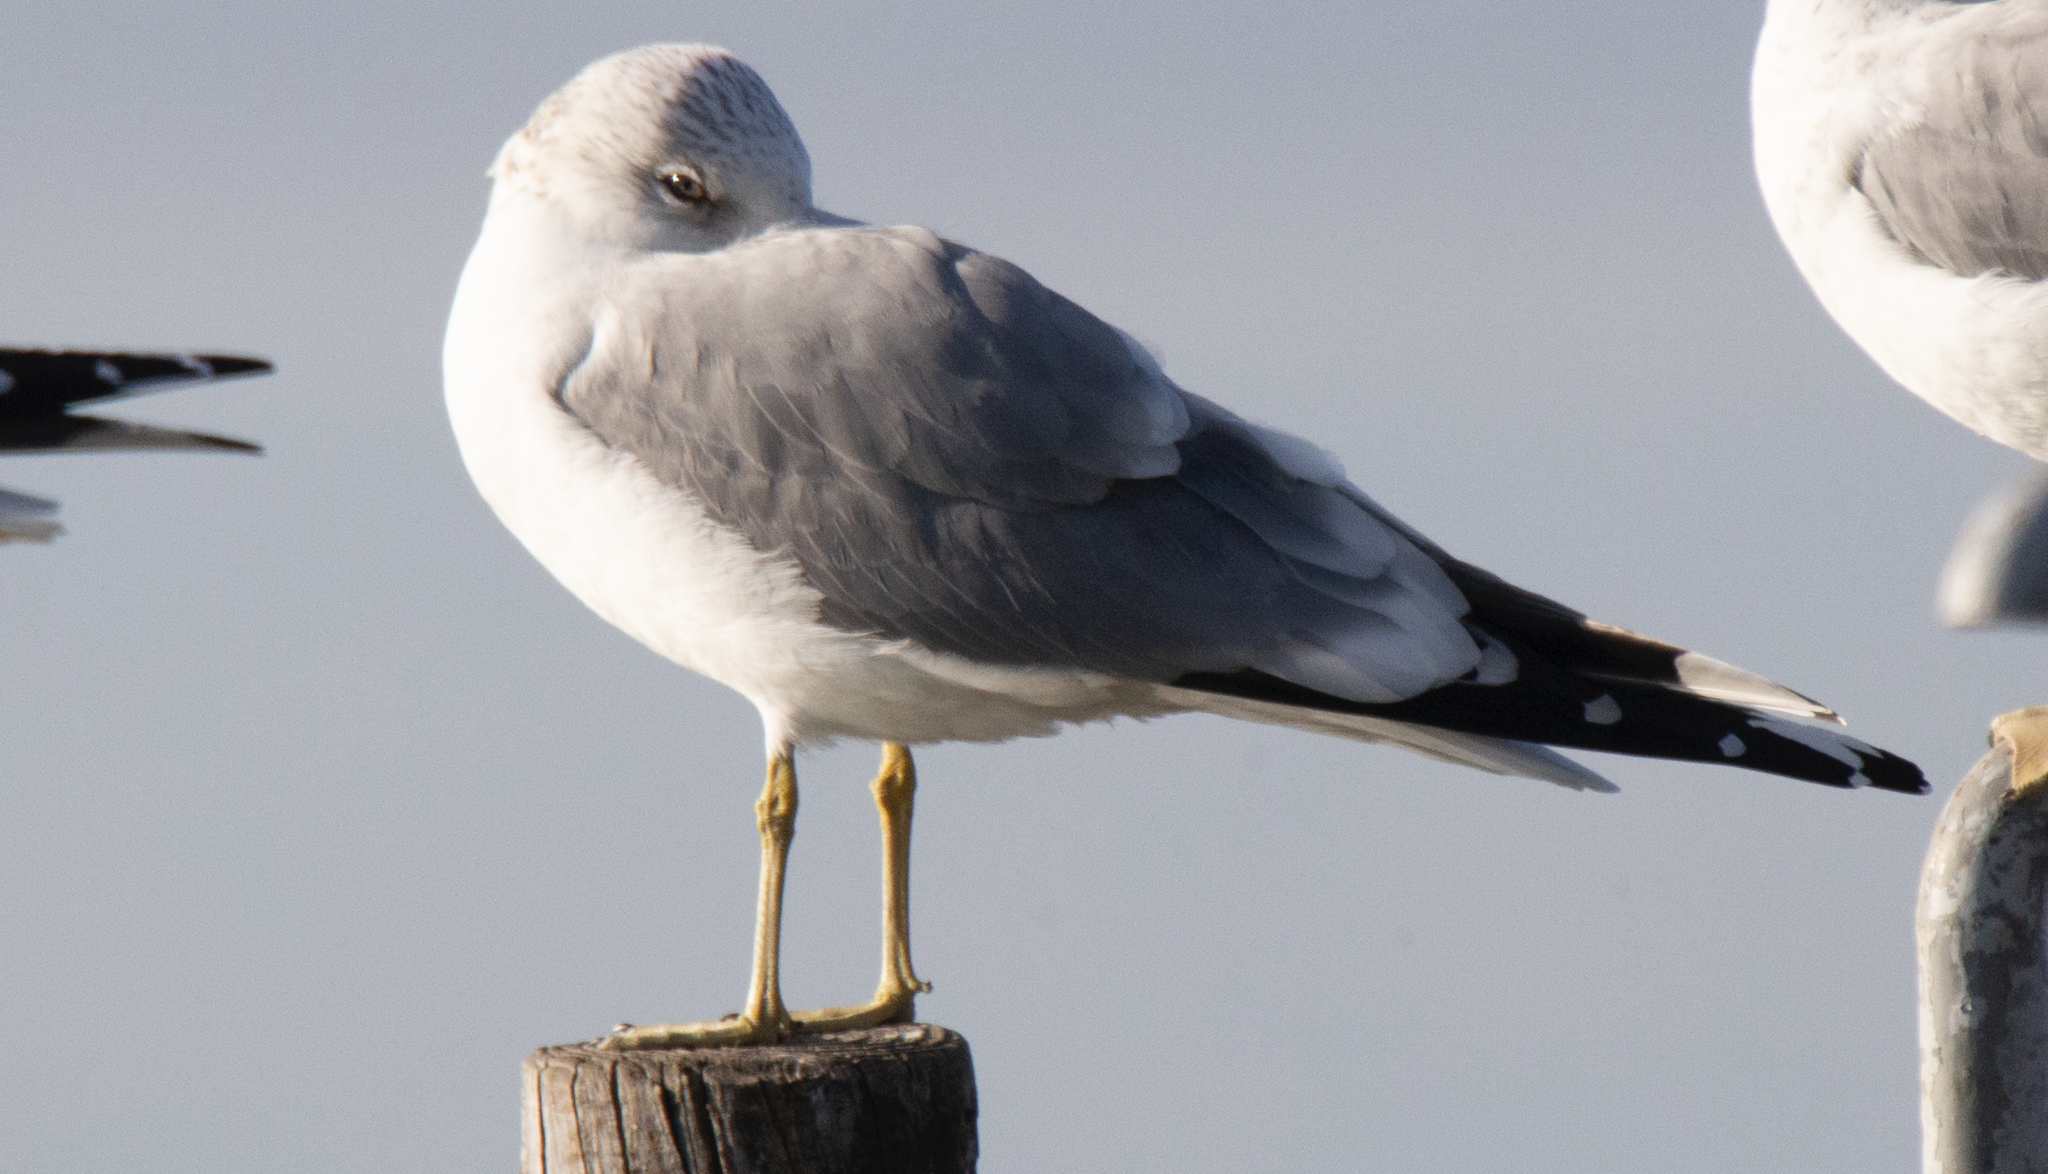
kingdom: Animalia
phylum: Chordata
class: Aves
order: Charadriiformes
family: Laridae
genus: Larus
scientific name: Larus canus
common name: Mew gull
